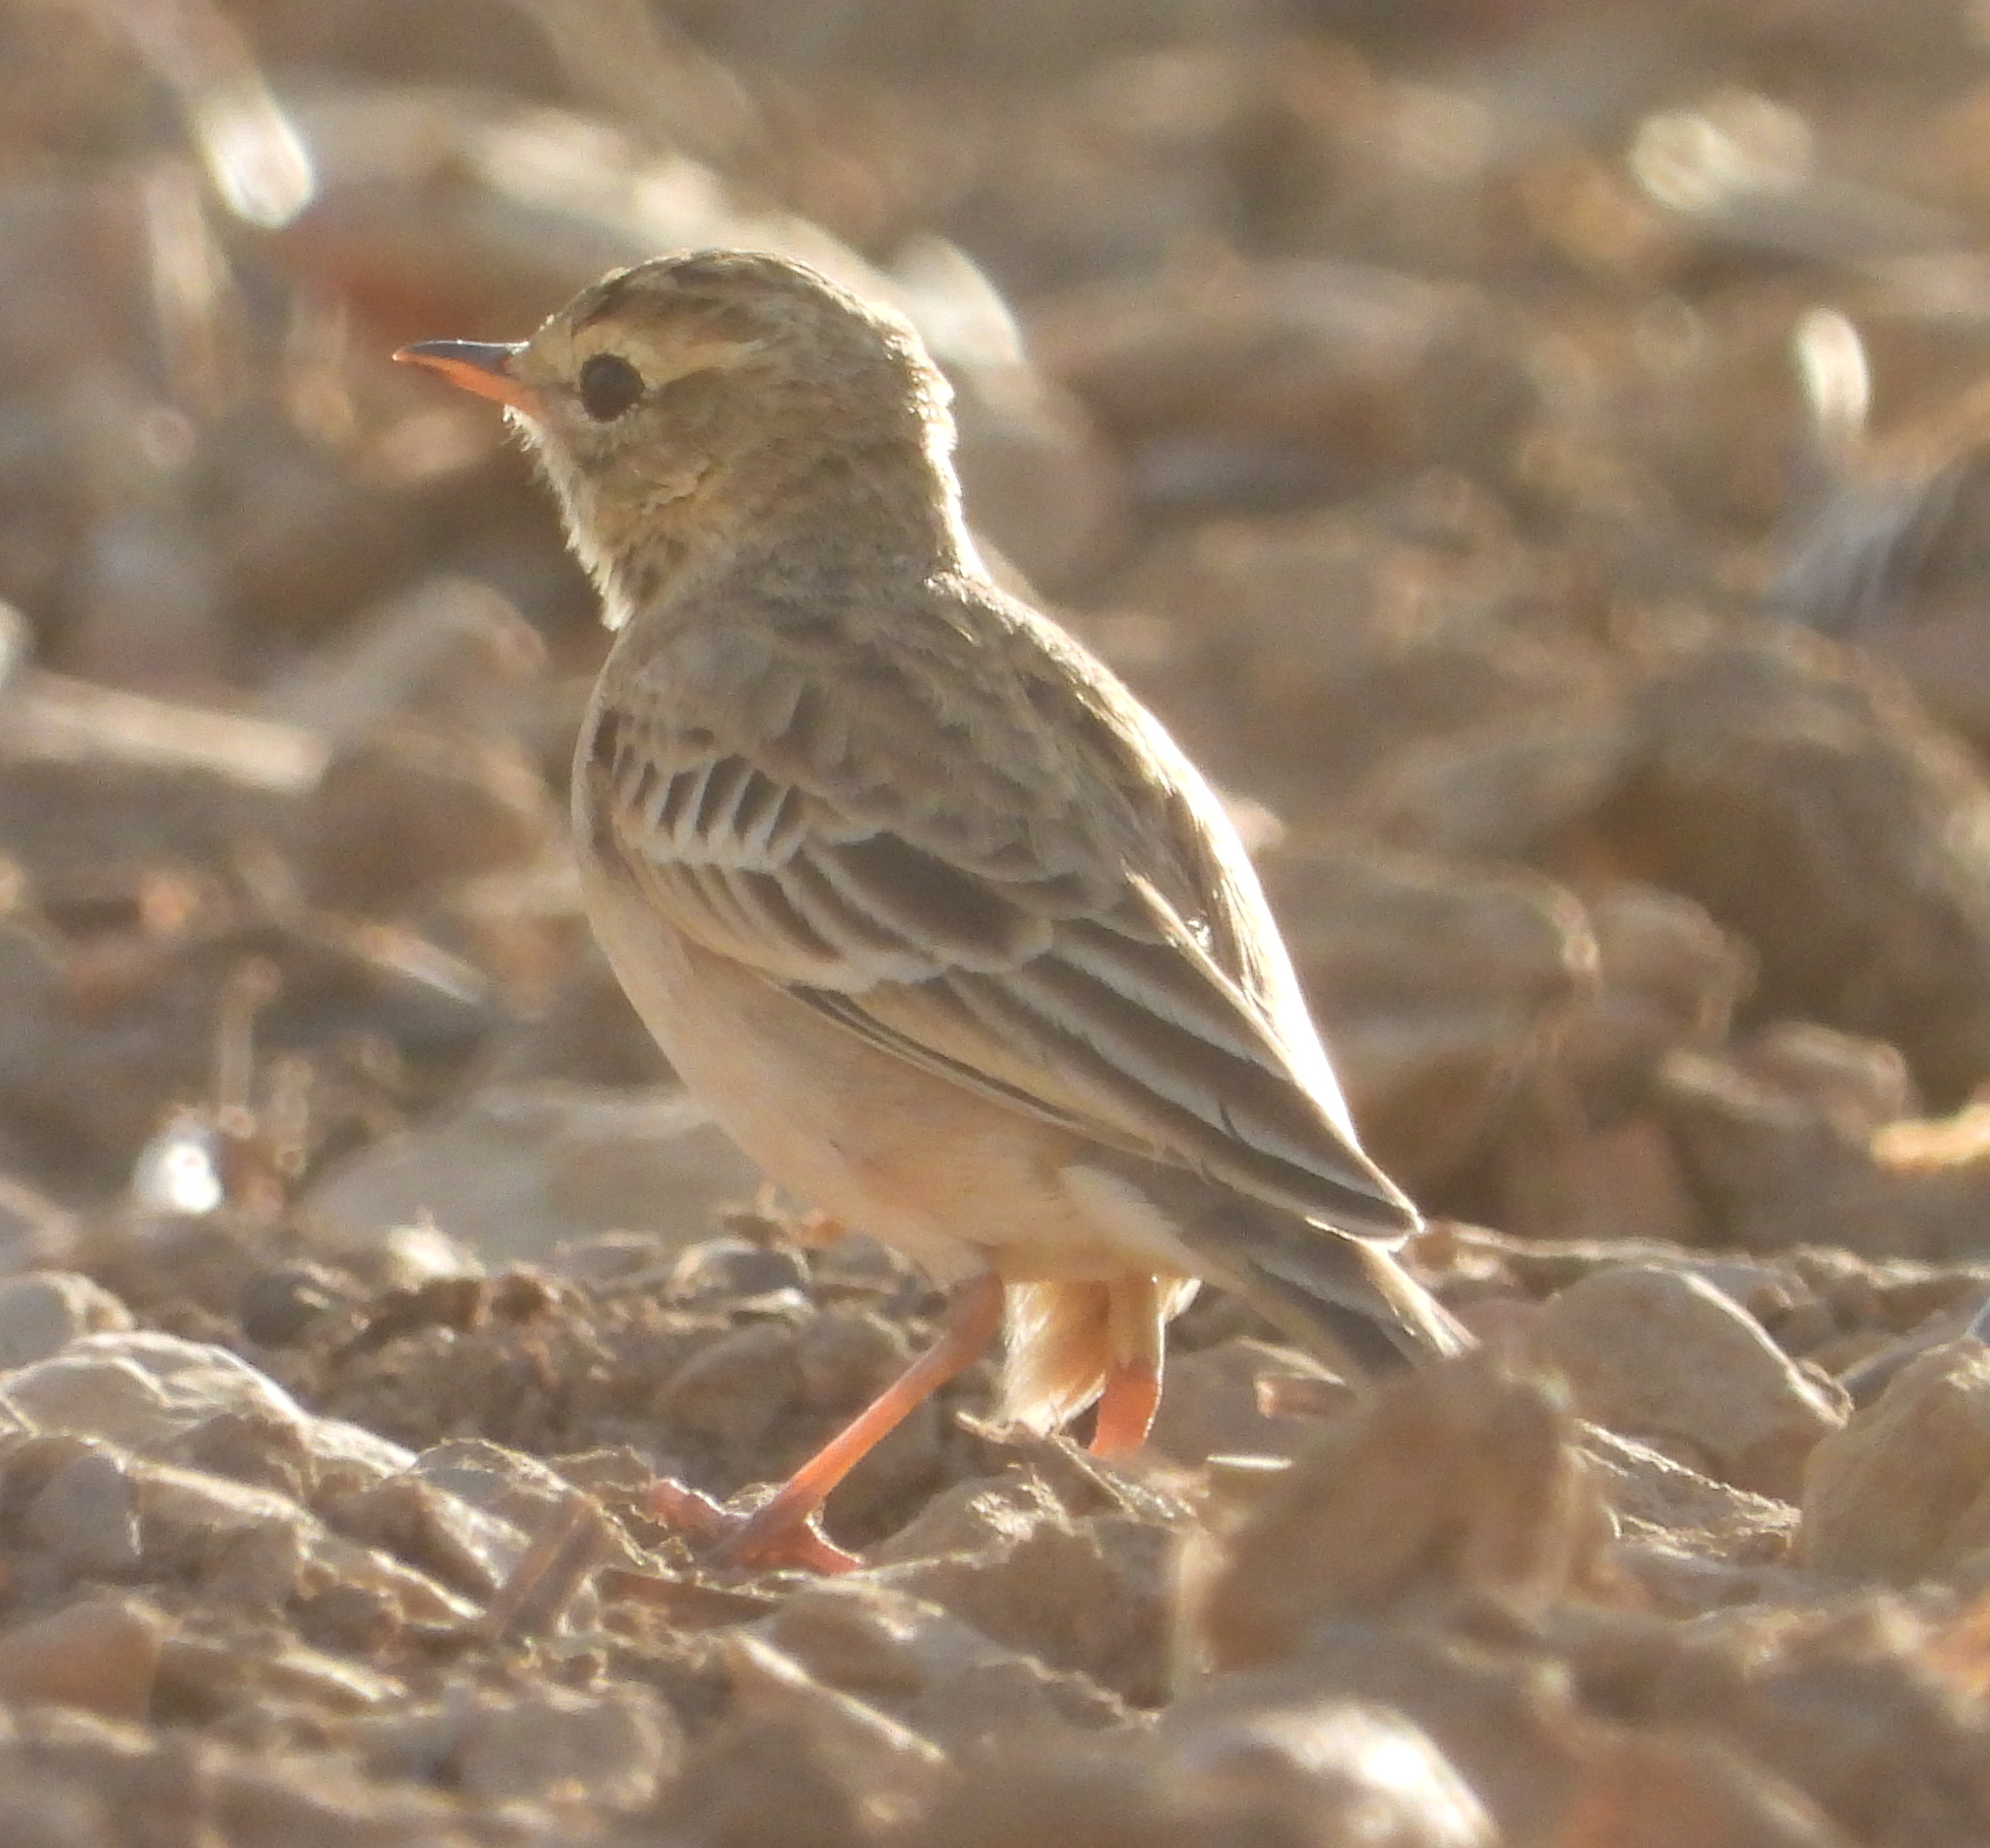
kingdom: Animalia
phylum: Chordata
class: Aves
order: Passeriformes
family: Motacillidae
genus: Anthus
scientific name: Anthus cinnamomeus
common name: African pipit
